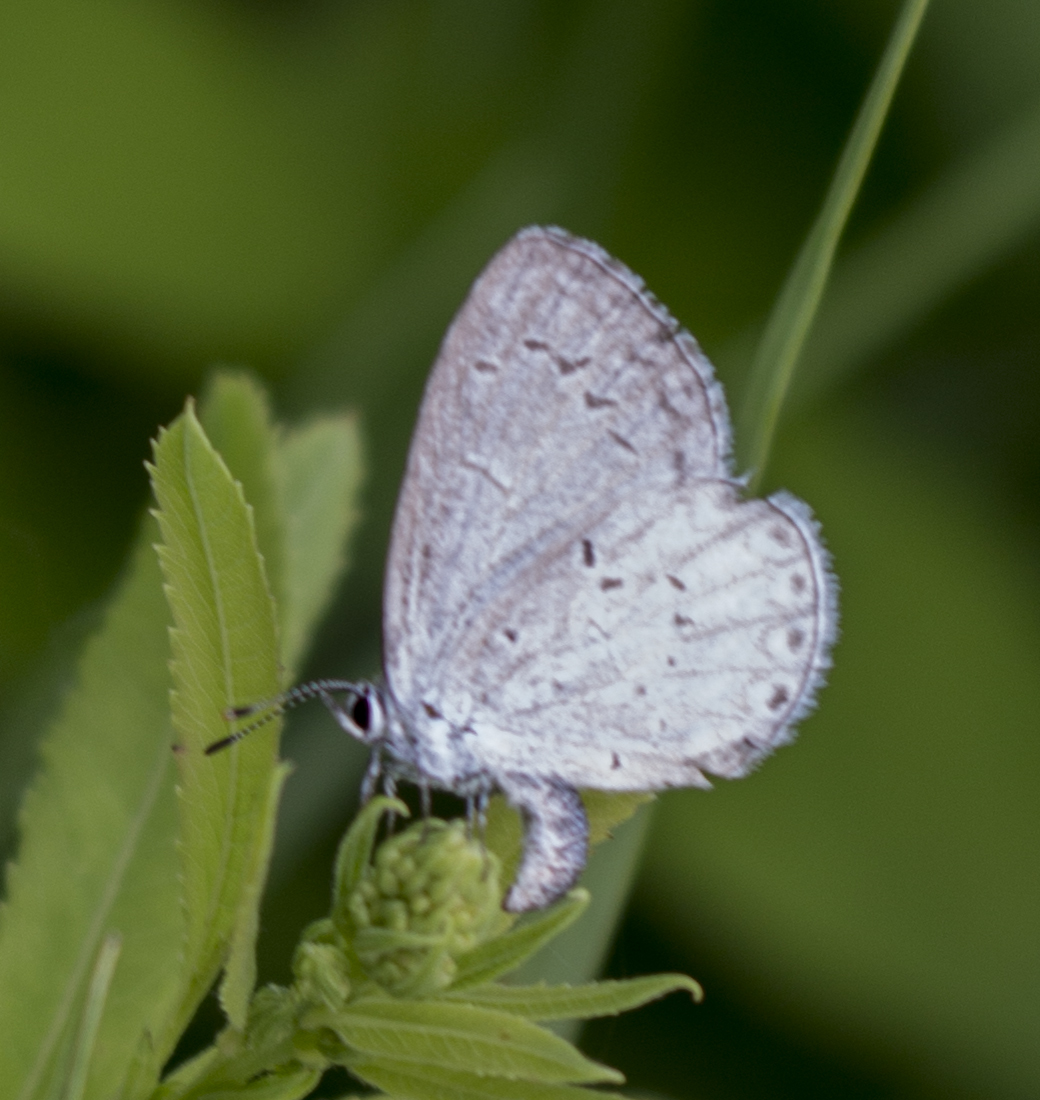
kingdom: Animalia
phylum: Arthropoda
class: Insecta
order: Lepidoptera
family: Lycaenidae
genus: Cyaniris
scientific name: Cyaniris neglecta
